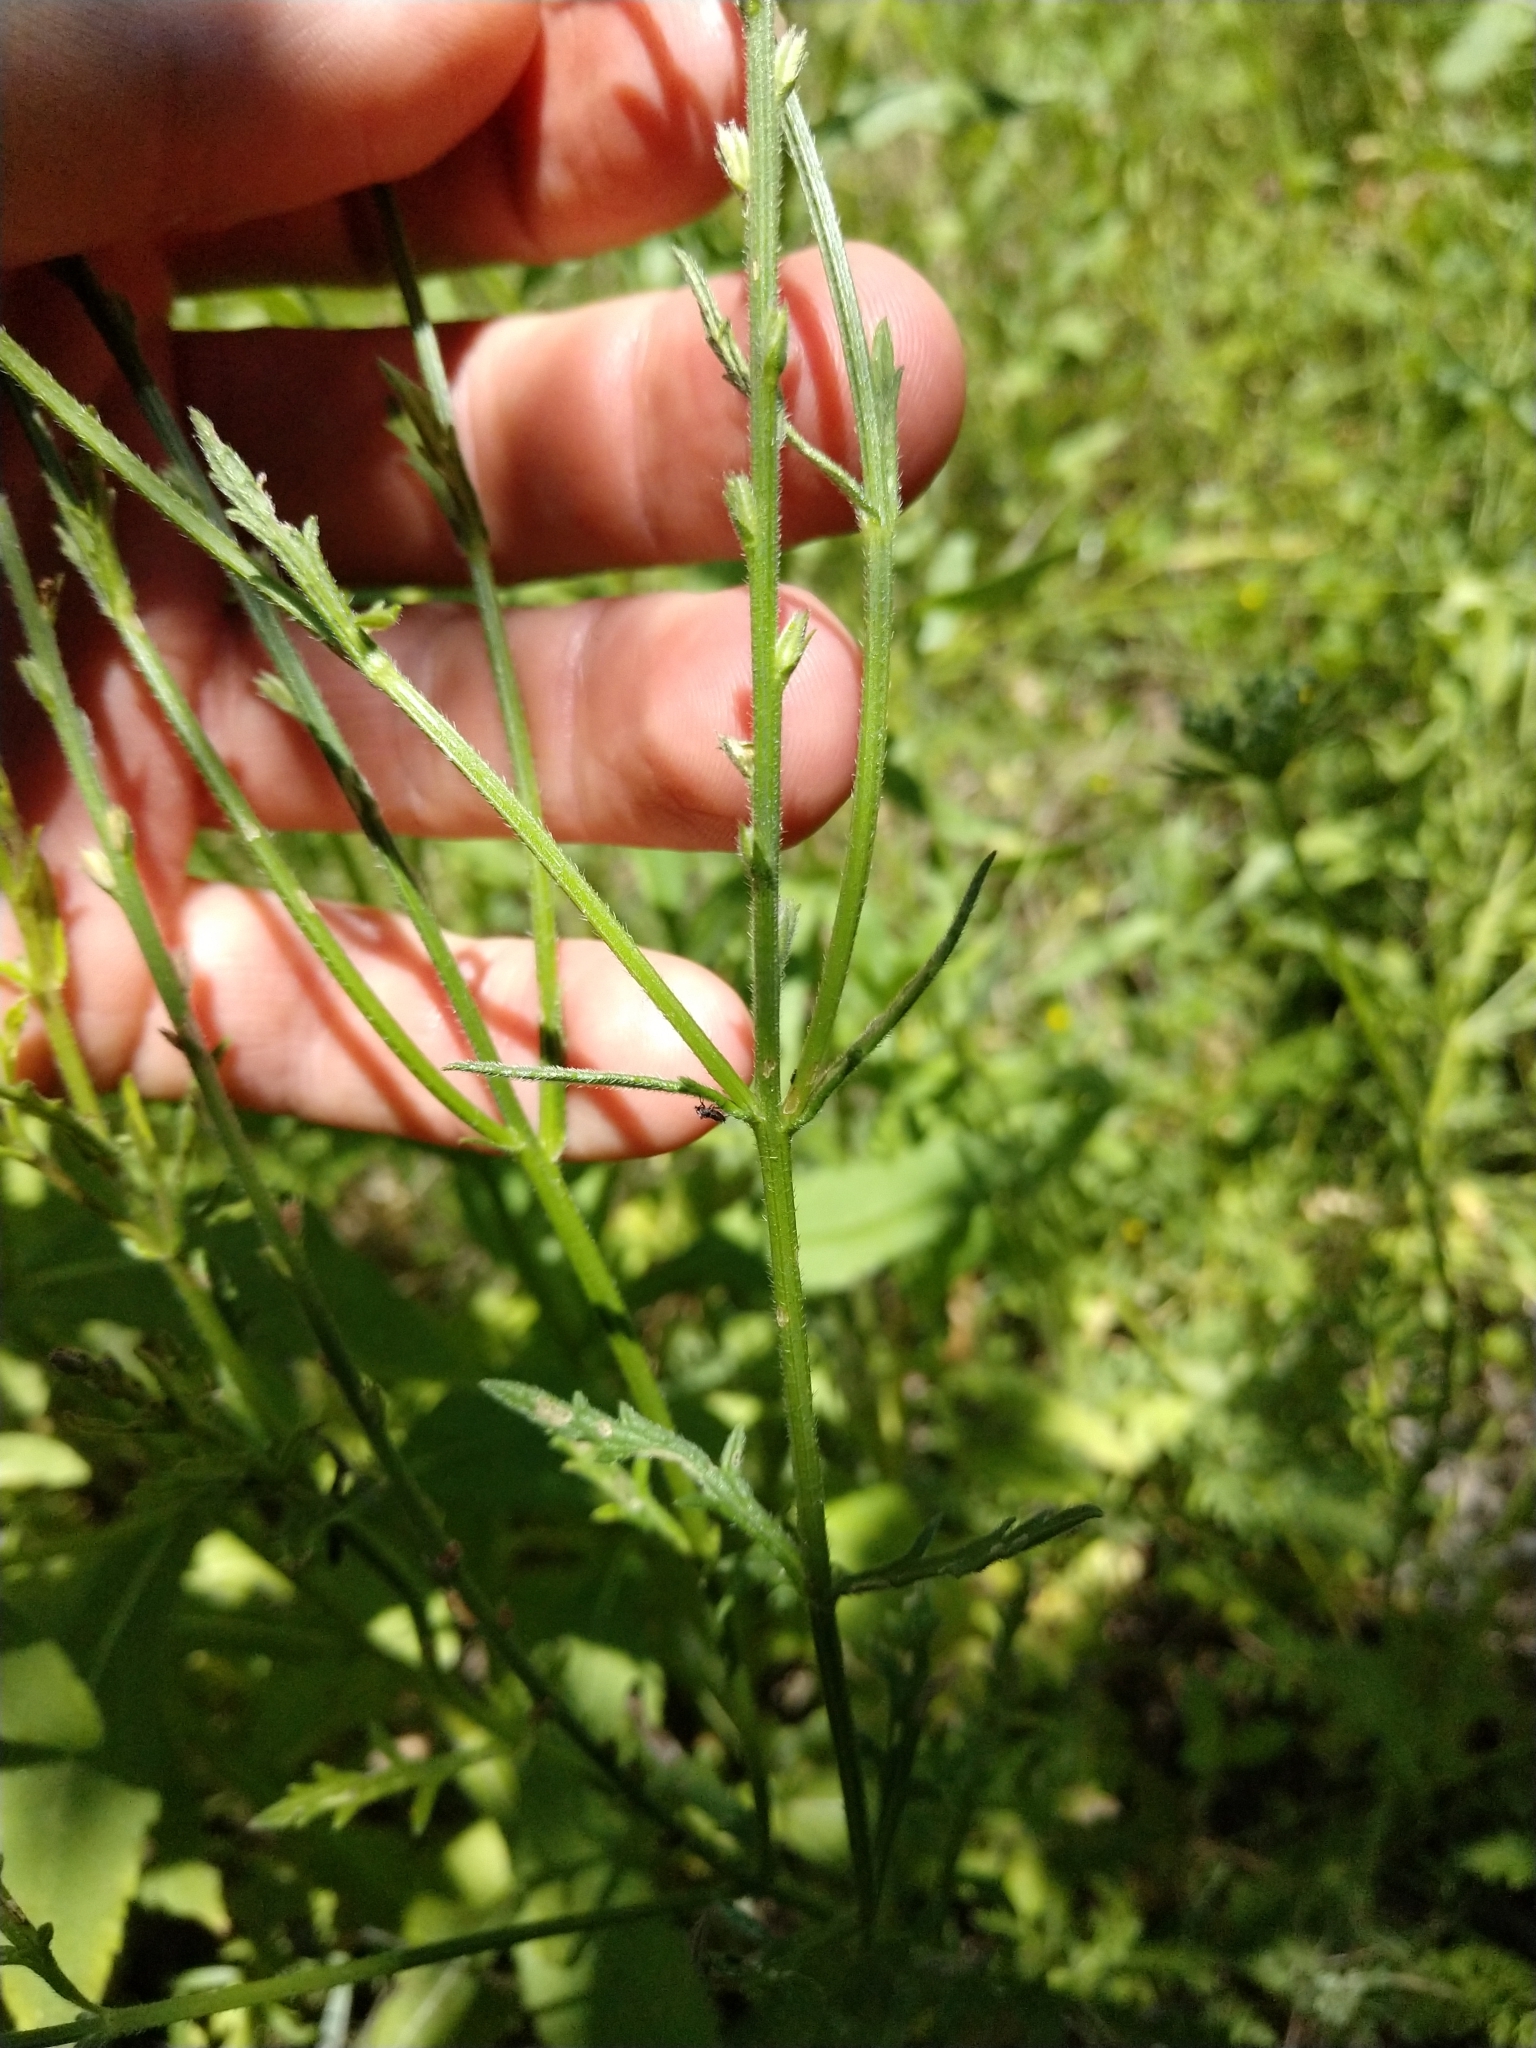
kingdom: Plantae
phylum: Tracheophyta
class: Magnoliopsida
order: Lamiales
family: Verbenaceae
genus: Verbena
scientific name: Verbena halei
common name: Texas vervain
